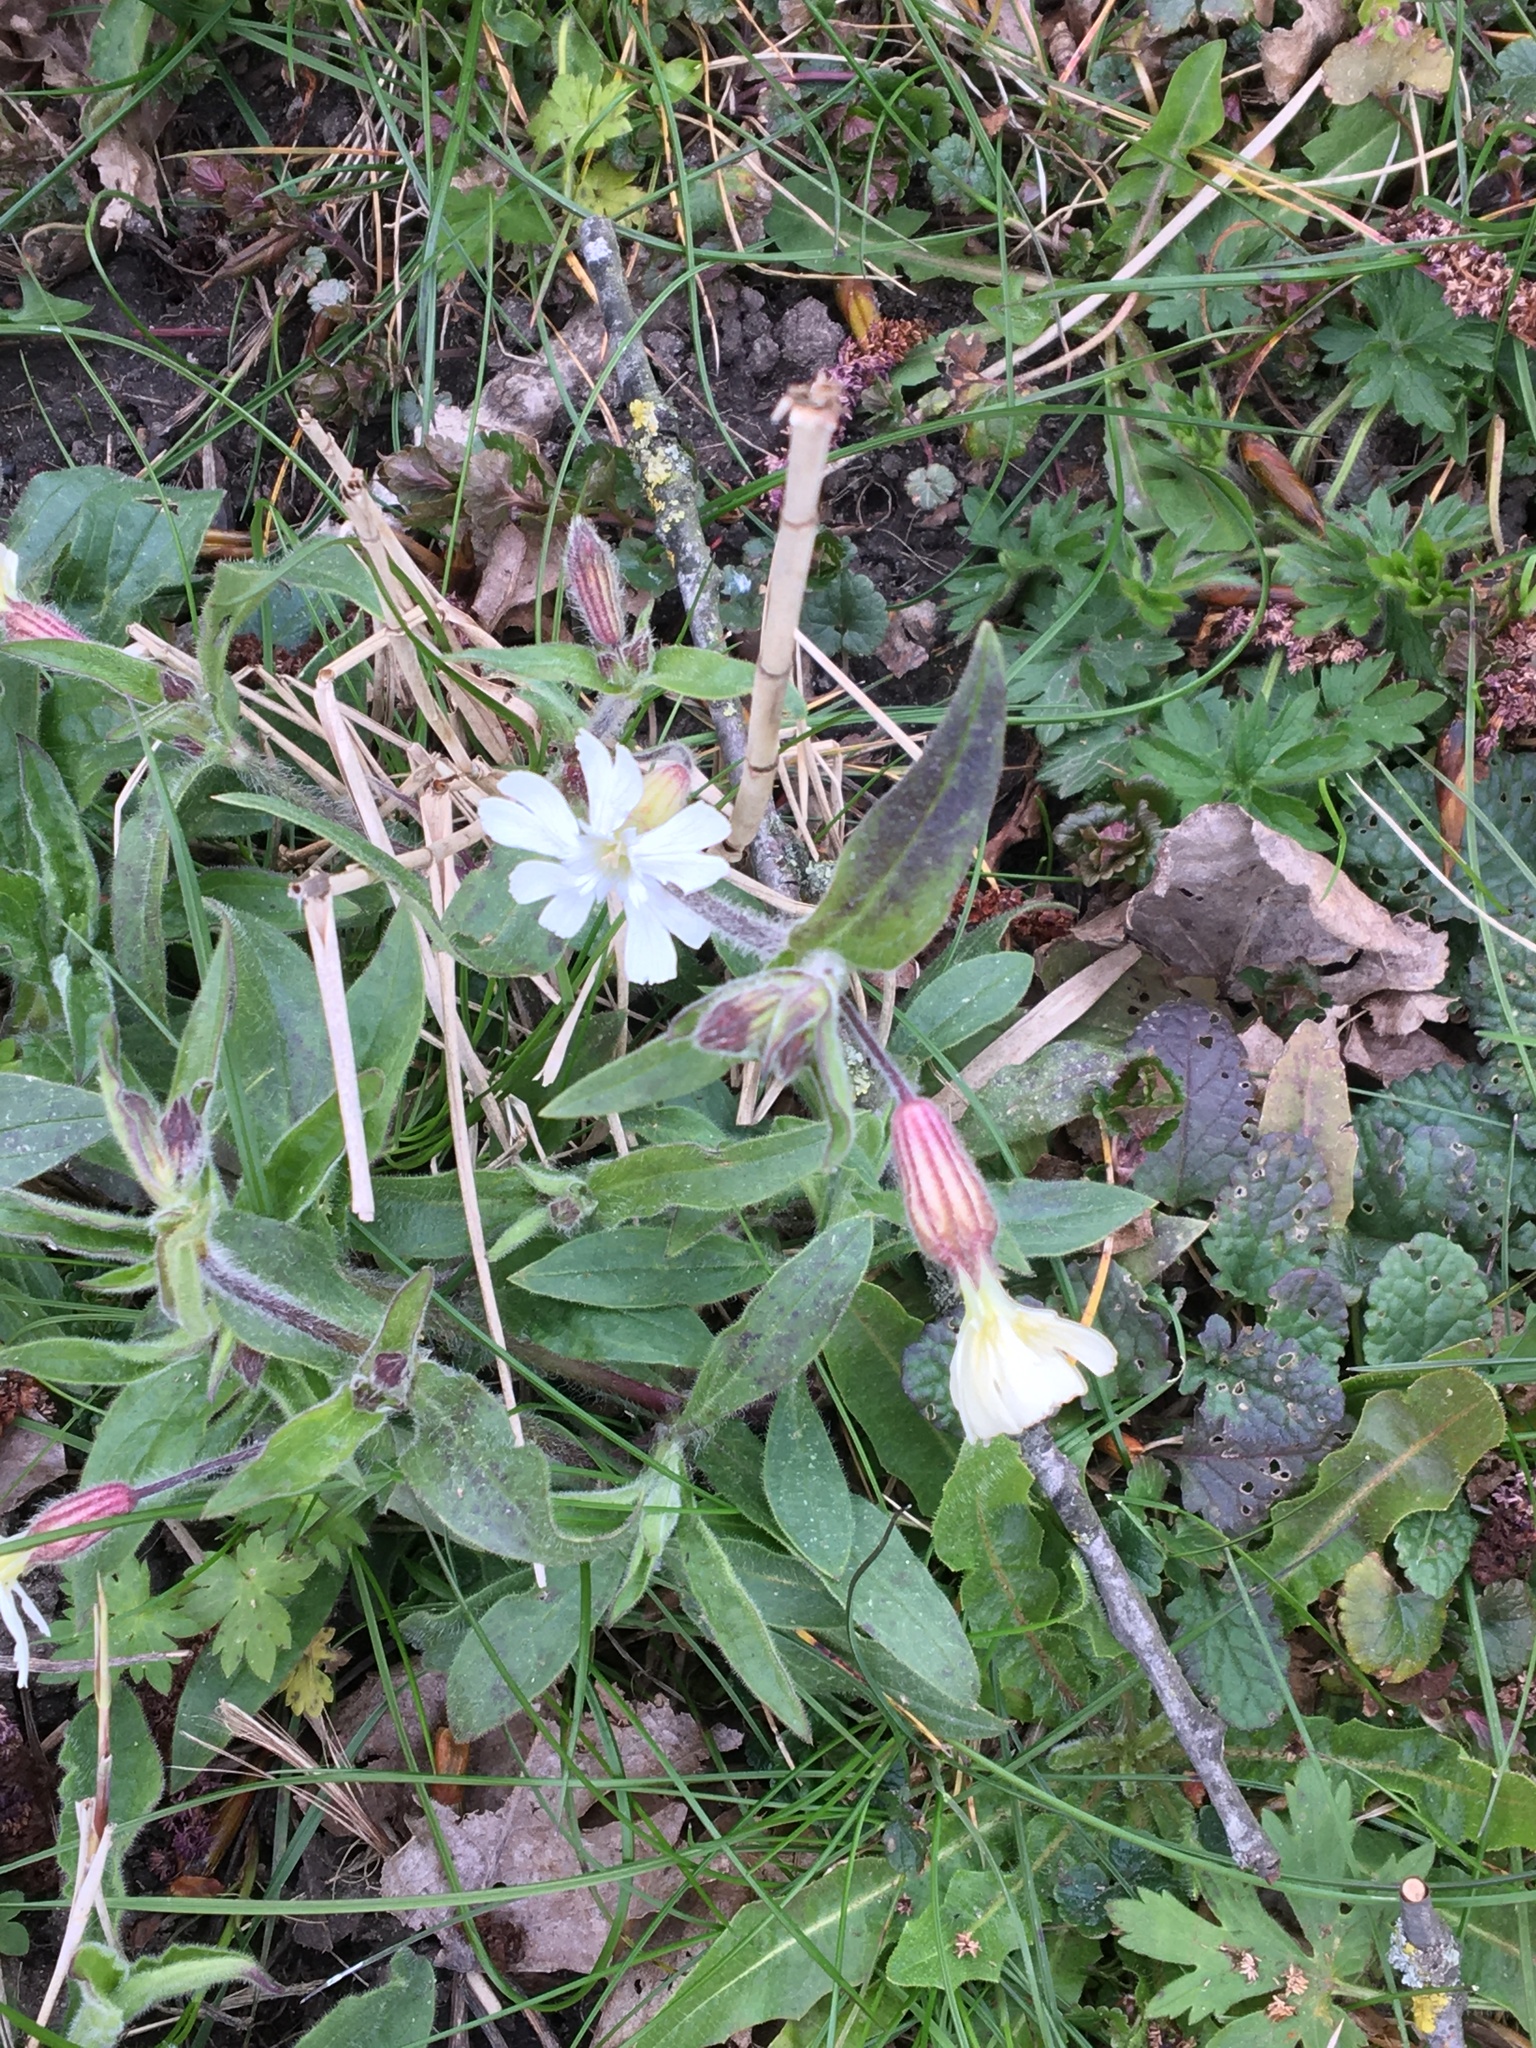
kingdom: Plantae
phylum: Tracheophyta
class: Magnoliopsida
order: Caryophyllales
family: Caryophyllaceae
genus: Silene
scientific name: Silene latifolia
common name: White campion
